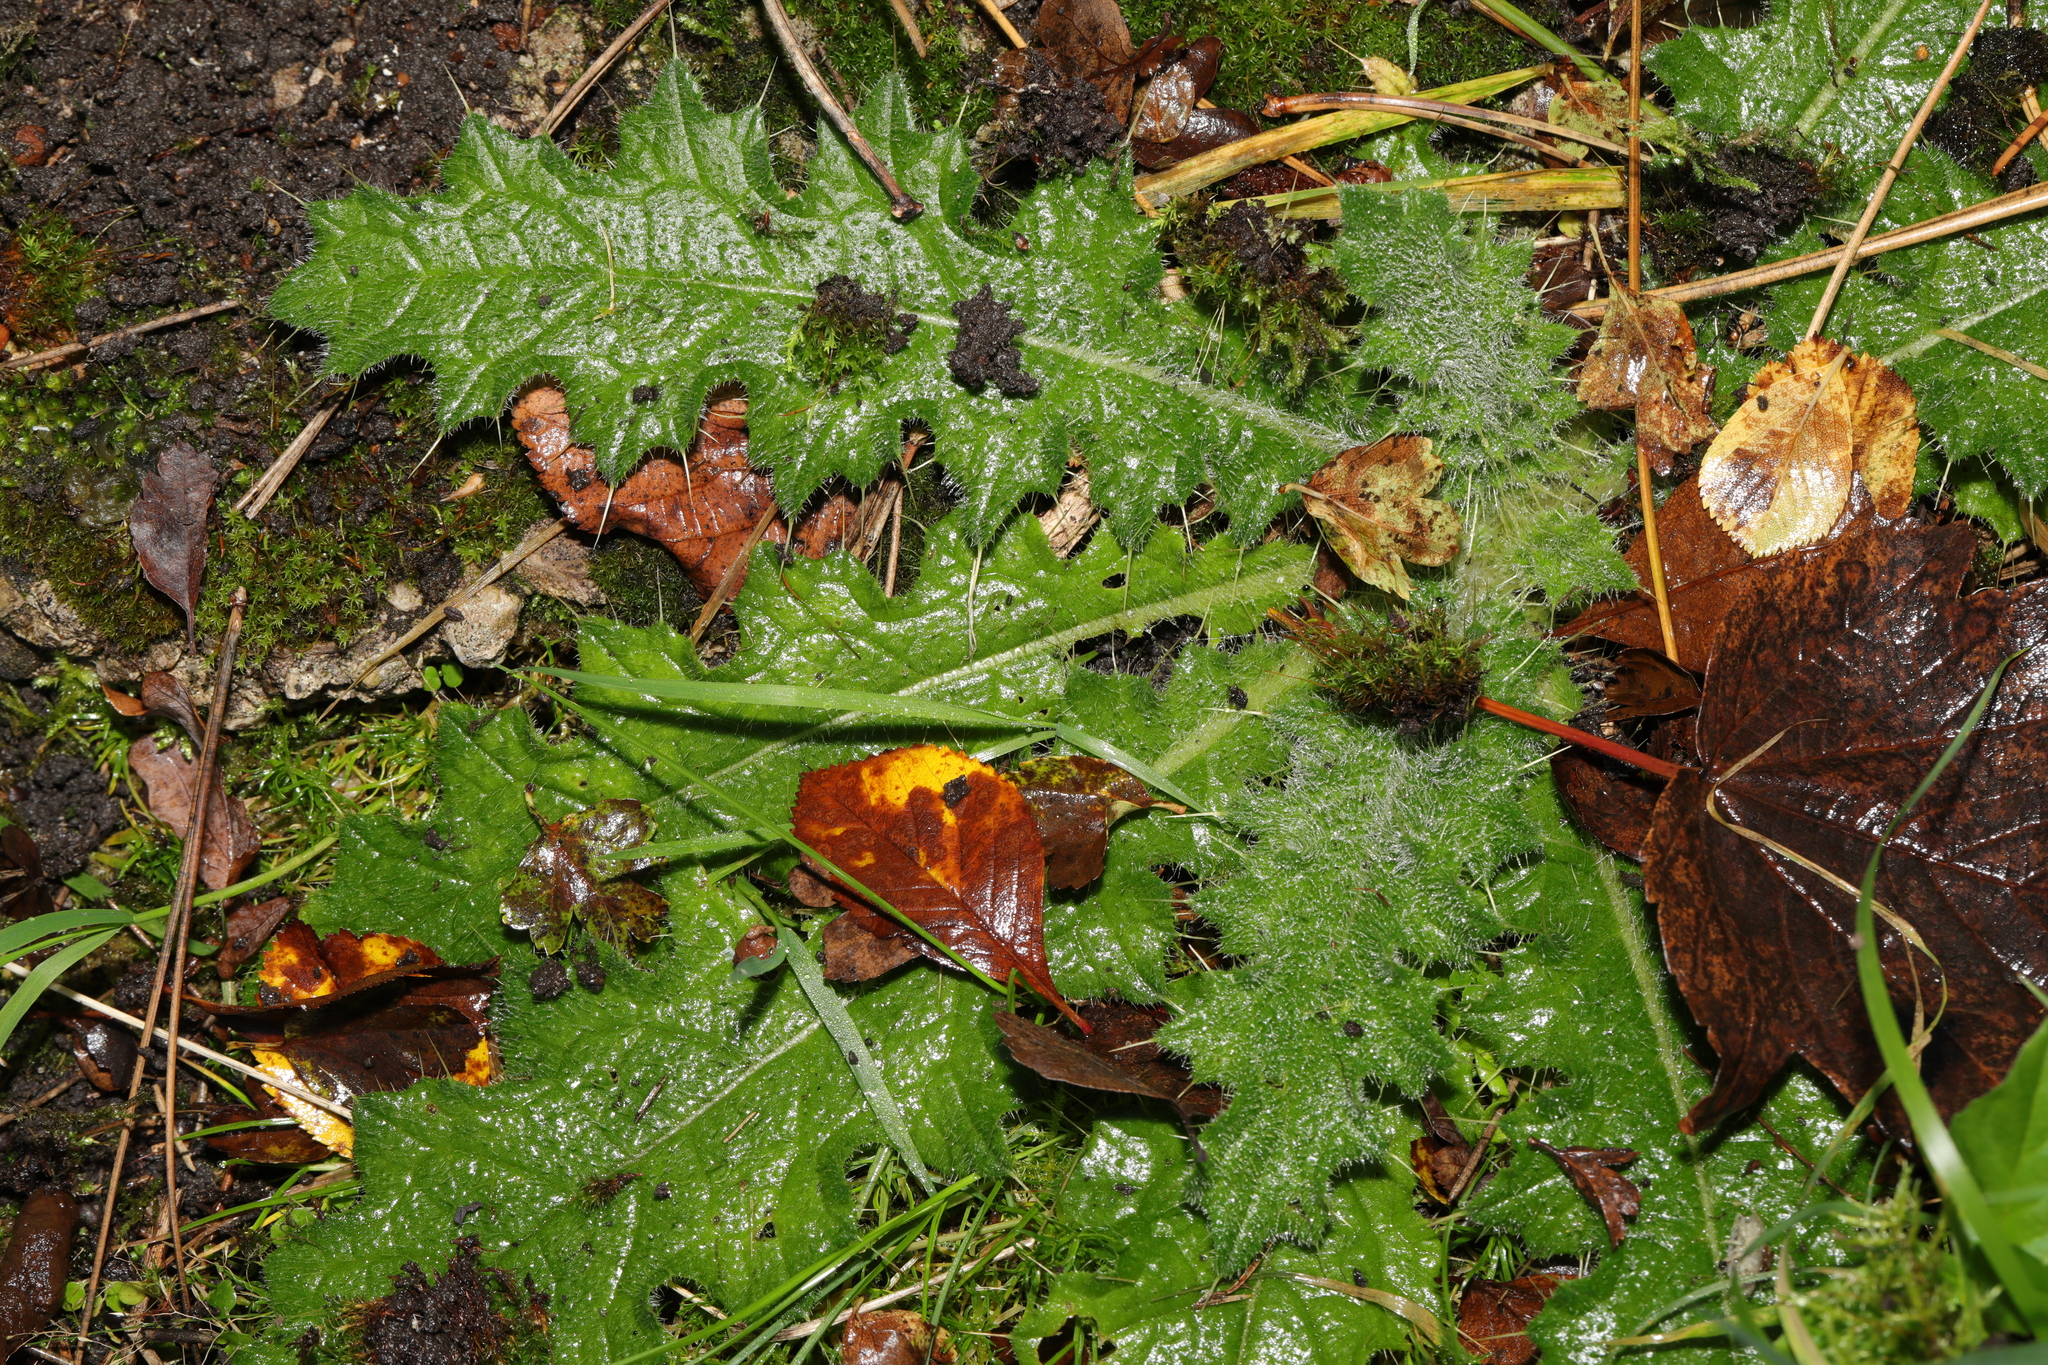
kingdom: Plantae
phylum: Tracheophyta
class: Magnoliopsida
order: Asterales
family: Asteraceae
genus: Cirsium
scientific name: Cirsium vulgare
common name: Bull thistle
